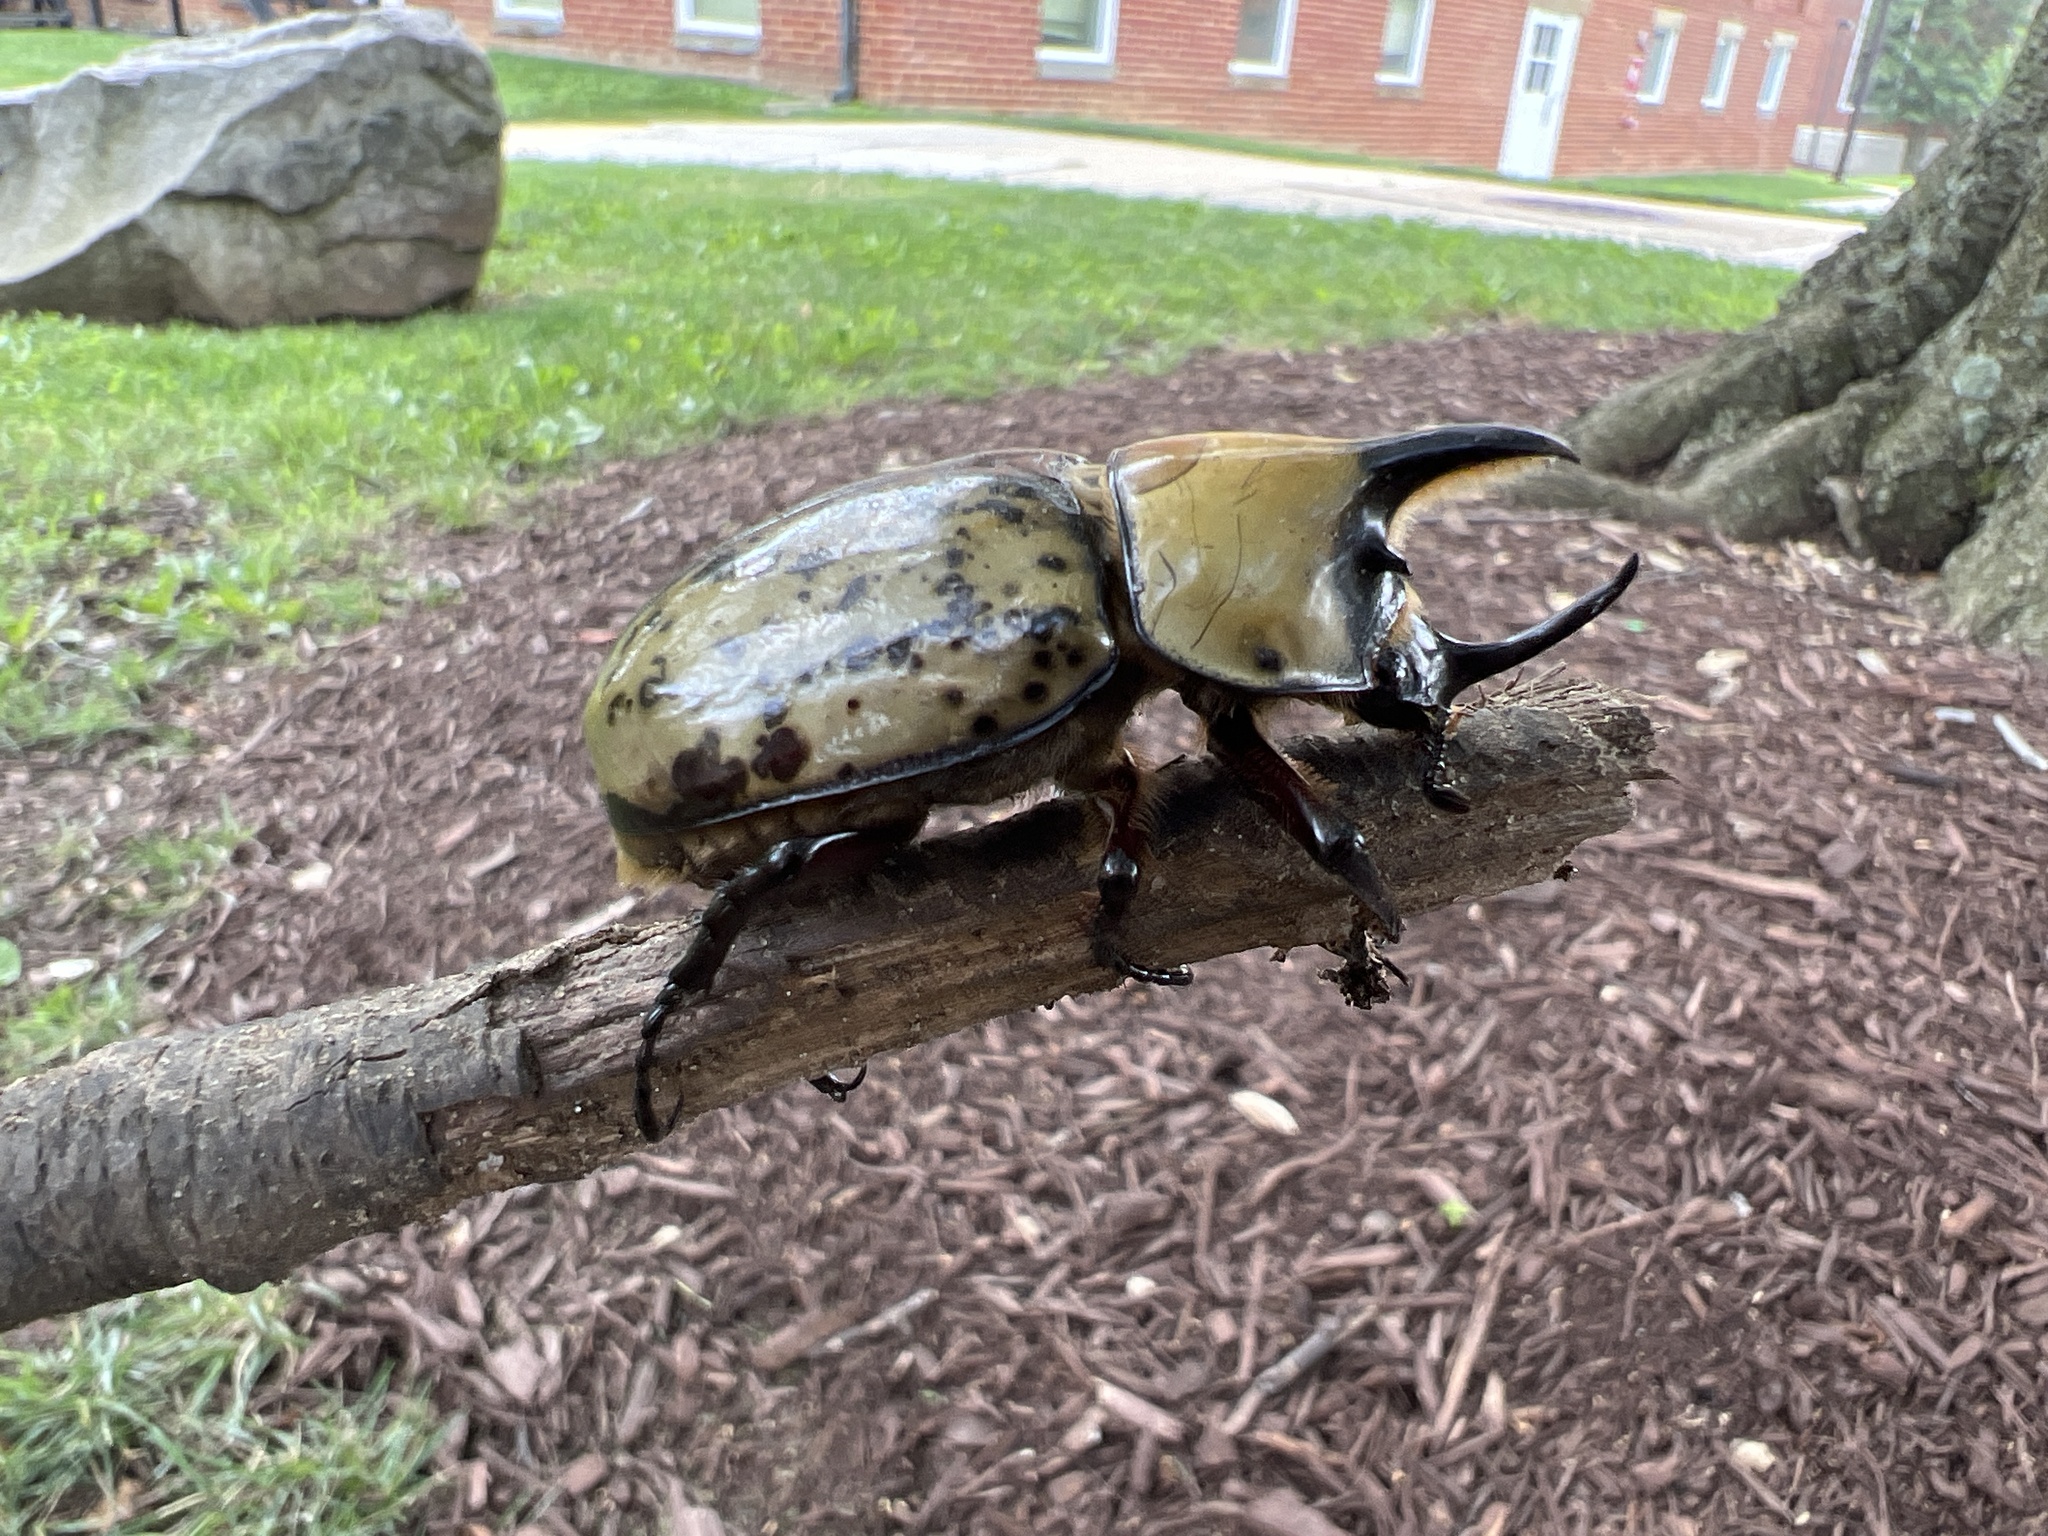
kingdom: Animalia
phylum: Arthropoda
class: Insecta
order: Coleoptera
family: Scarabaeidae
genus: Dynastes
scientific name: Dynastes tityus
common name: Eastern hercules beetle
